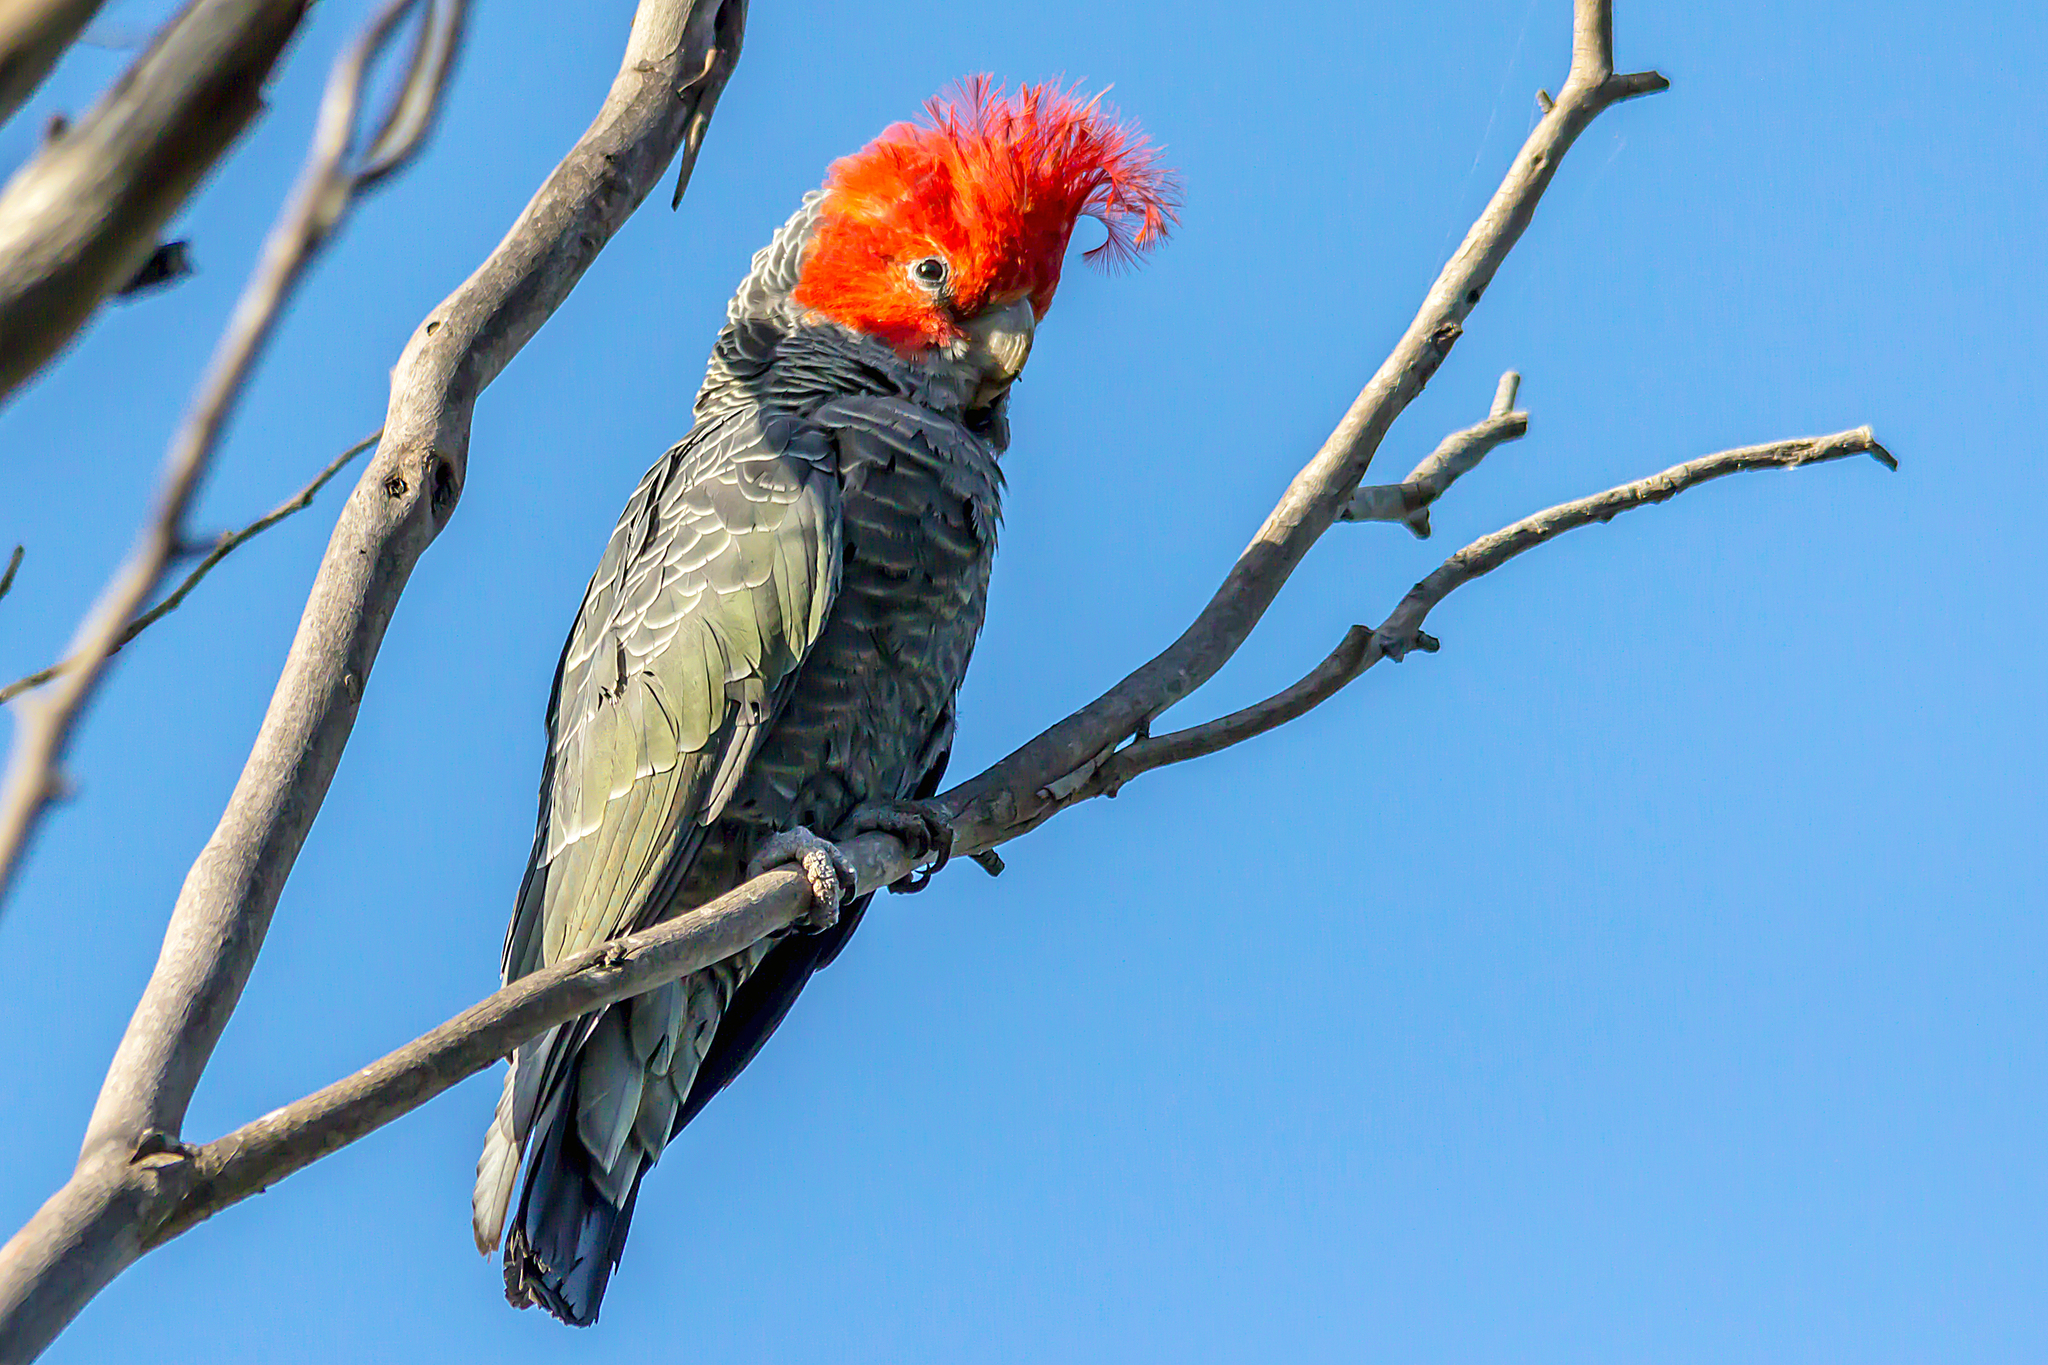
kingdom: Animalia
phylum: Chordata
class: Aves
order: Psittaciformes
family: Psittacidae
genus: Callocephalon
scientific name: Callocephalon fimbriatum
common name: Gang-gang cockatoo
